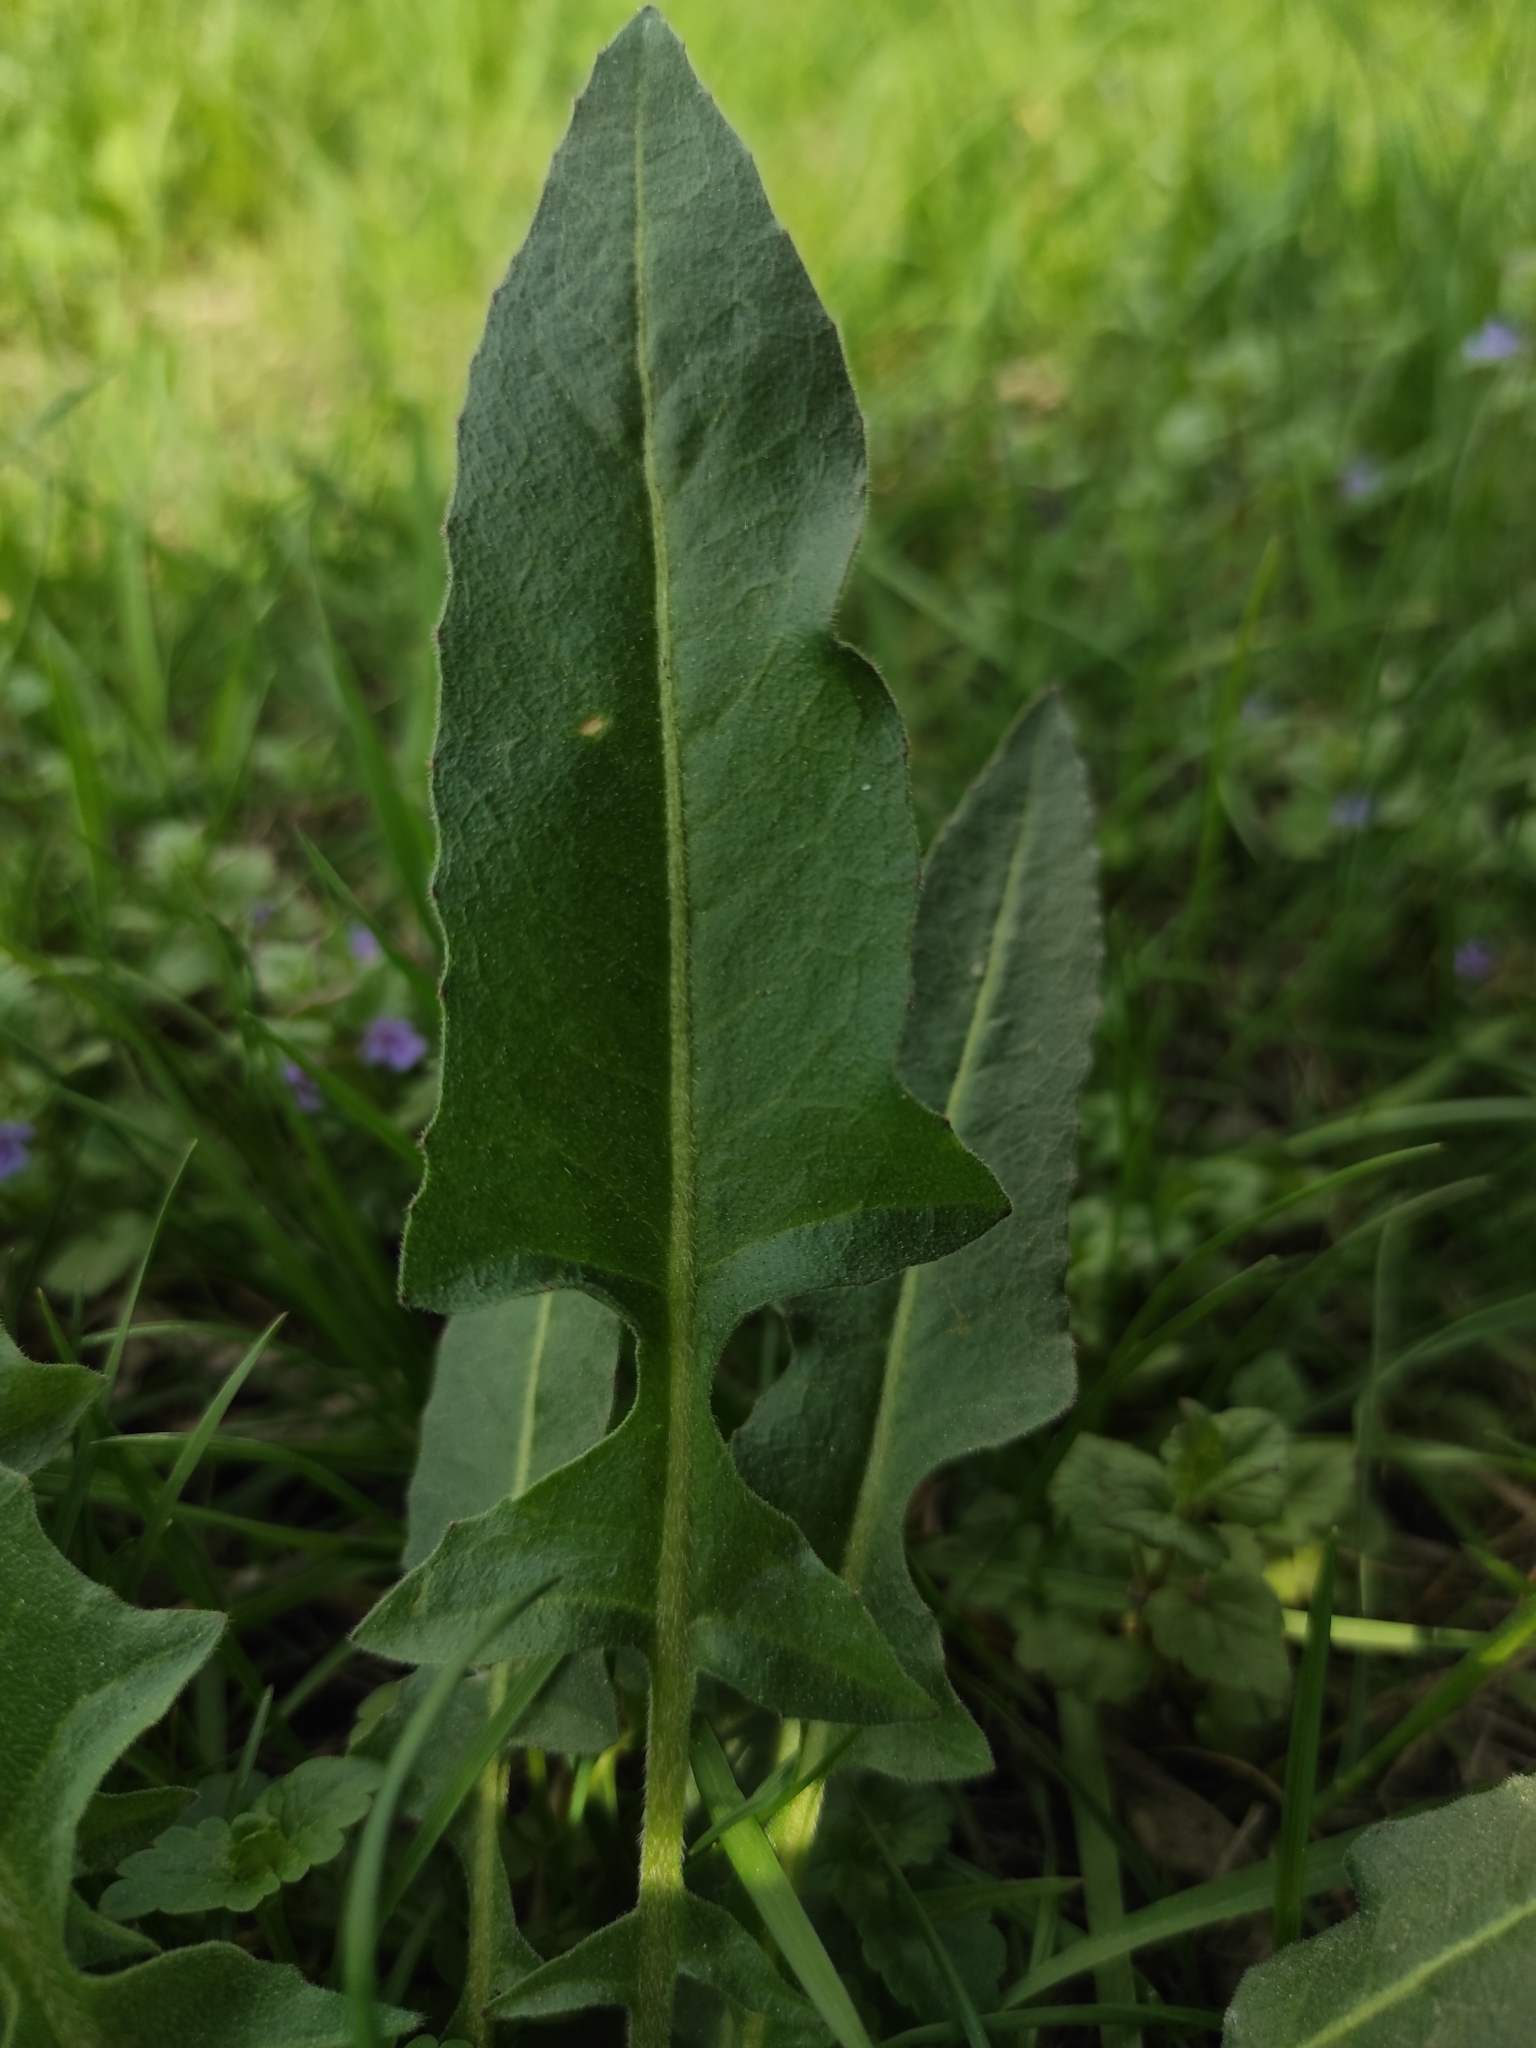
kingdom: Plantae
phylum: Tracheophyta
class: Magnoliopsida
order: Brassicales
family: Brassicaceae
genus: Bunias
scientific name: Bunias orientalis
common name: Warty-cabbage
